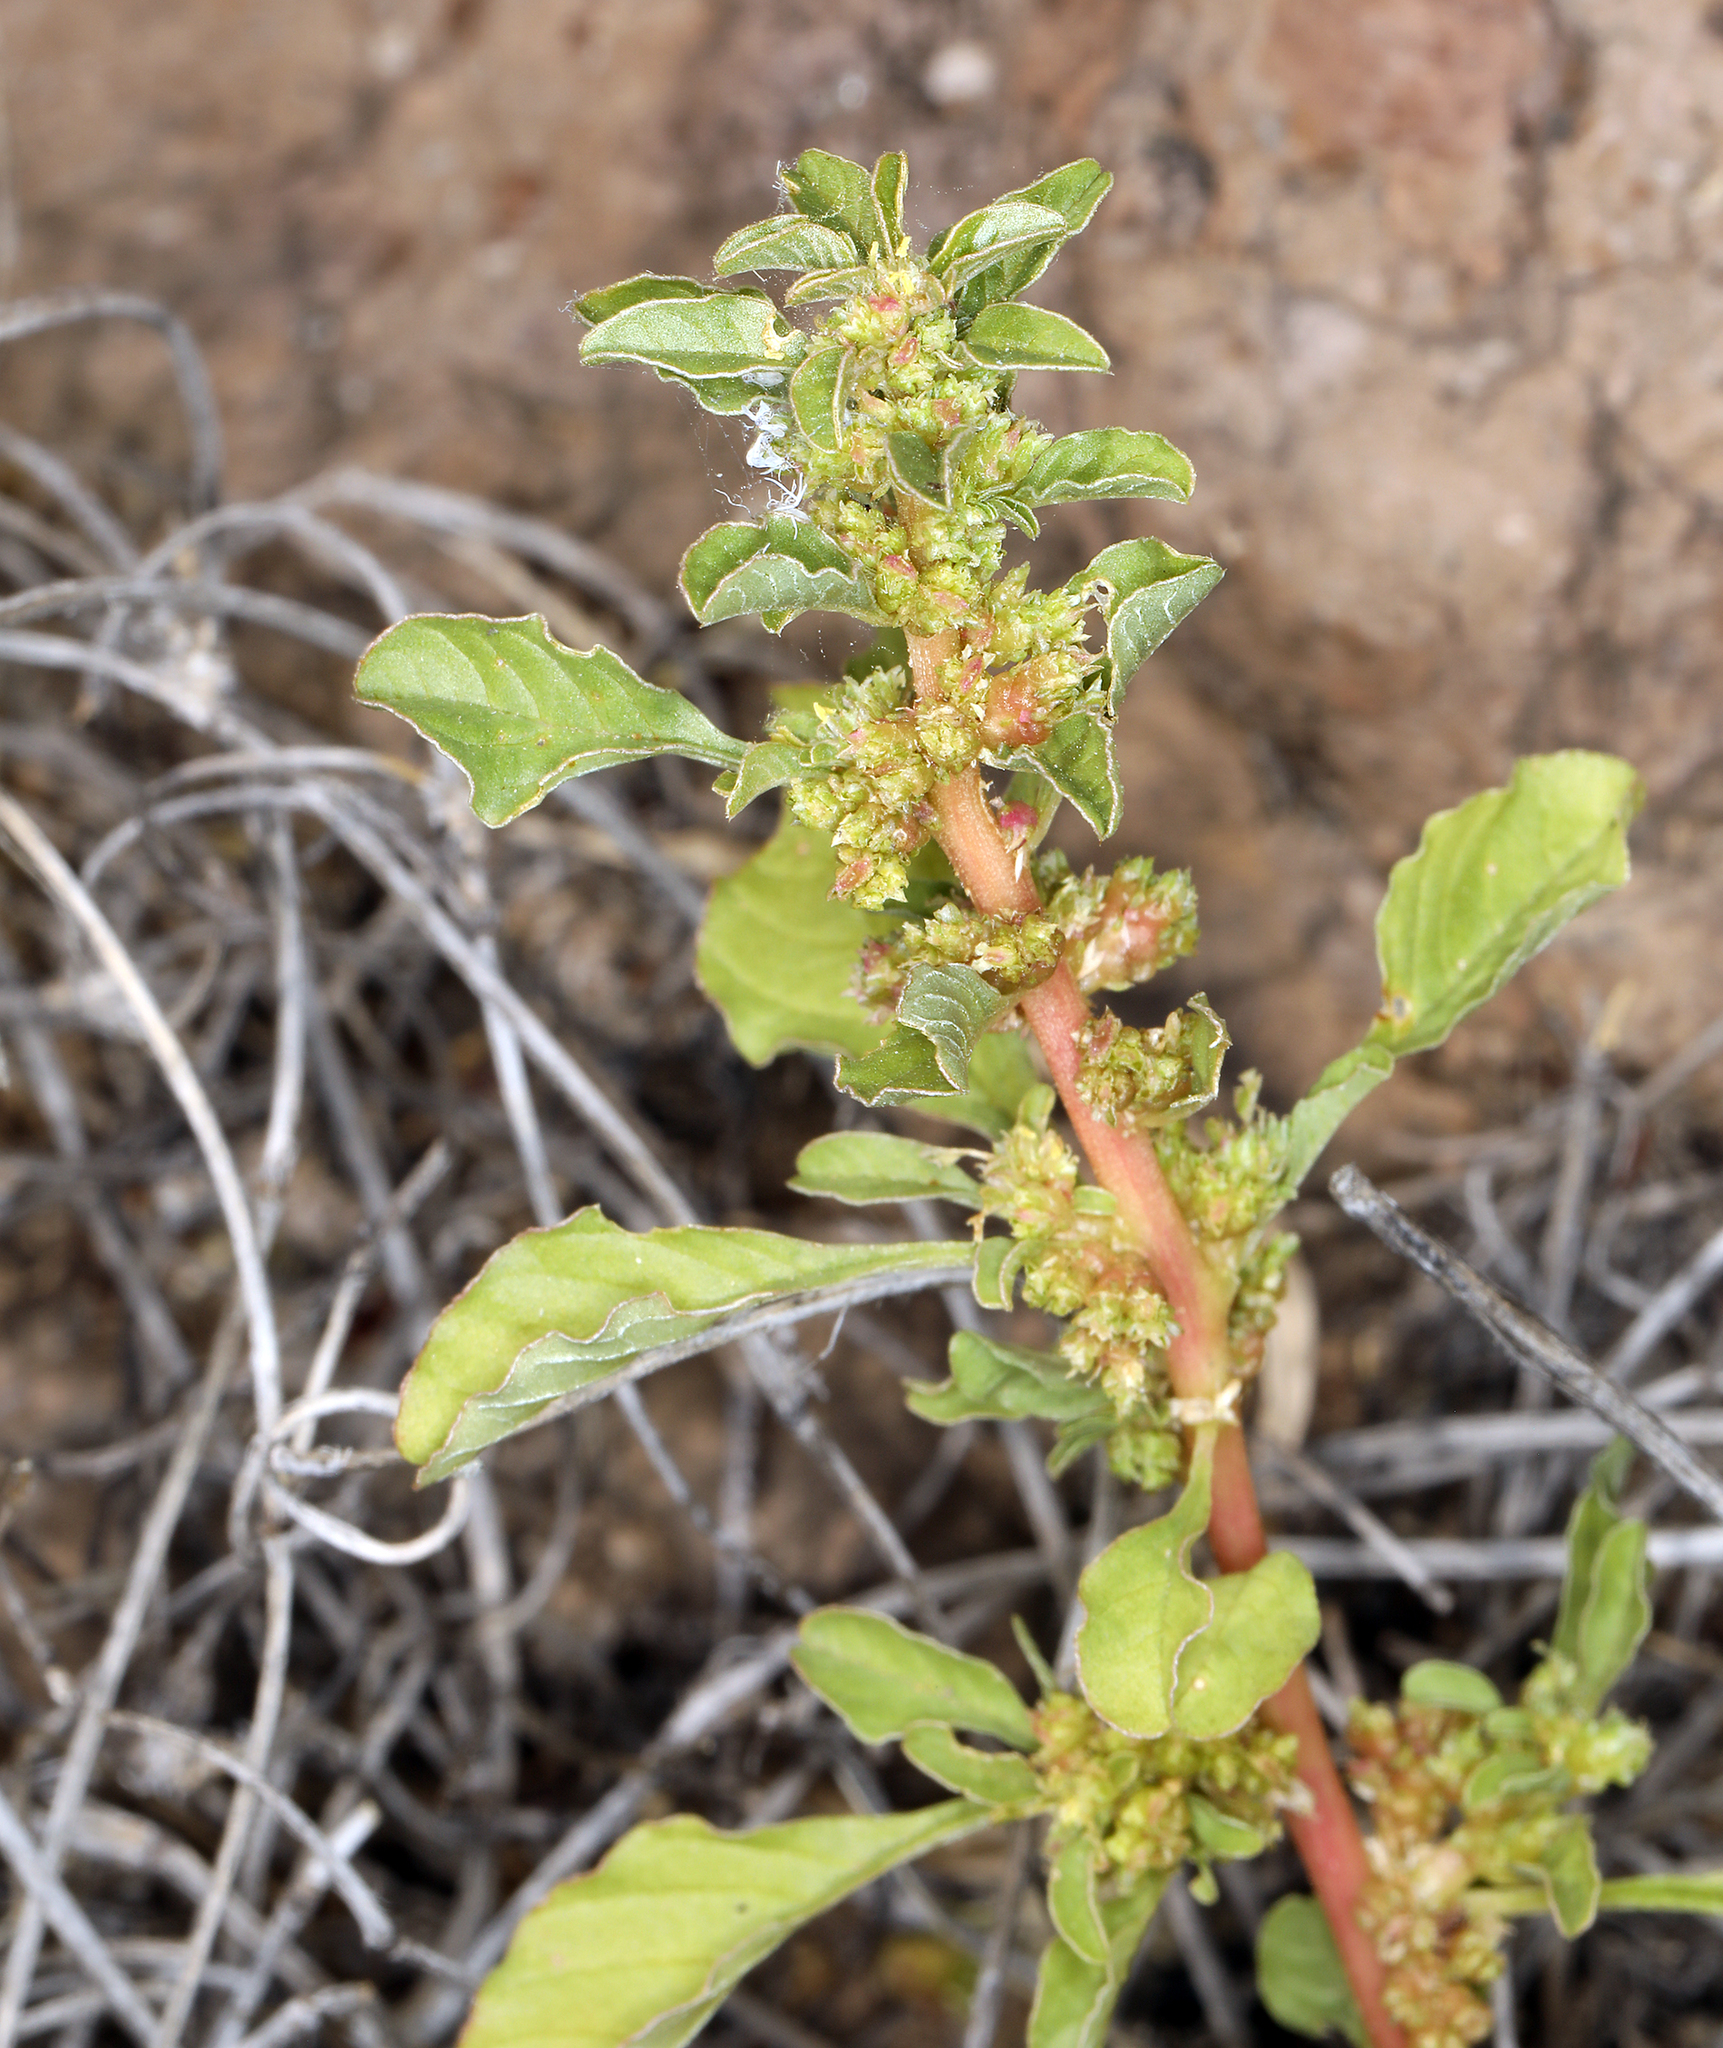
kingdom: Plantae
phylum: Tracheophyta
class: Magnoliopsida
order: Caryophyllales
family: Amaranthaceae
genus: Amaranthus
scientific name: Amaranthus crassipes
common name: Spreading amaranth
